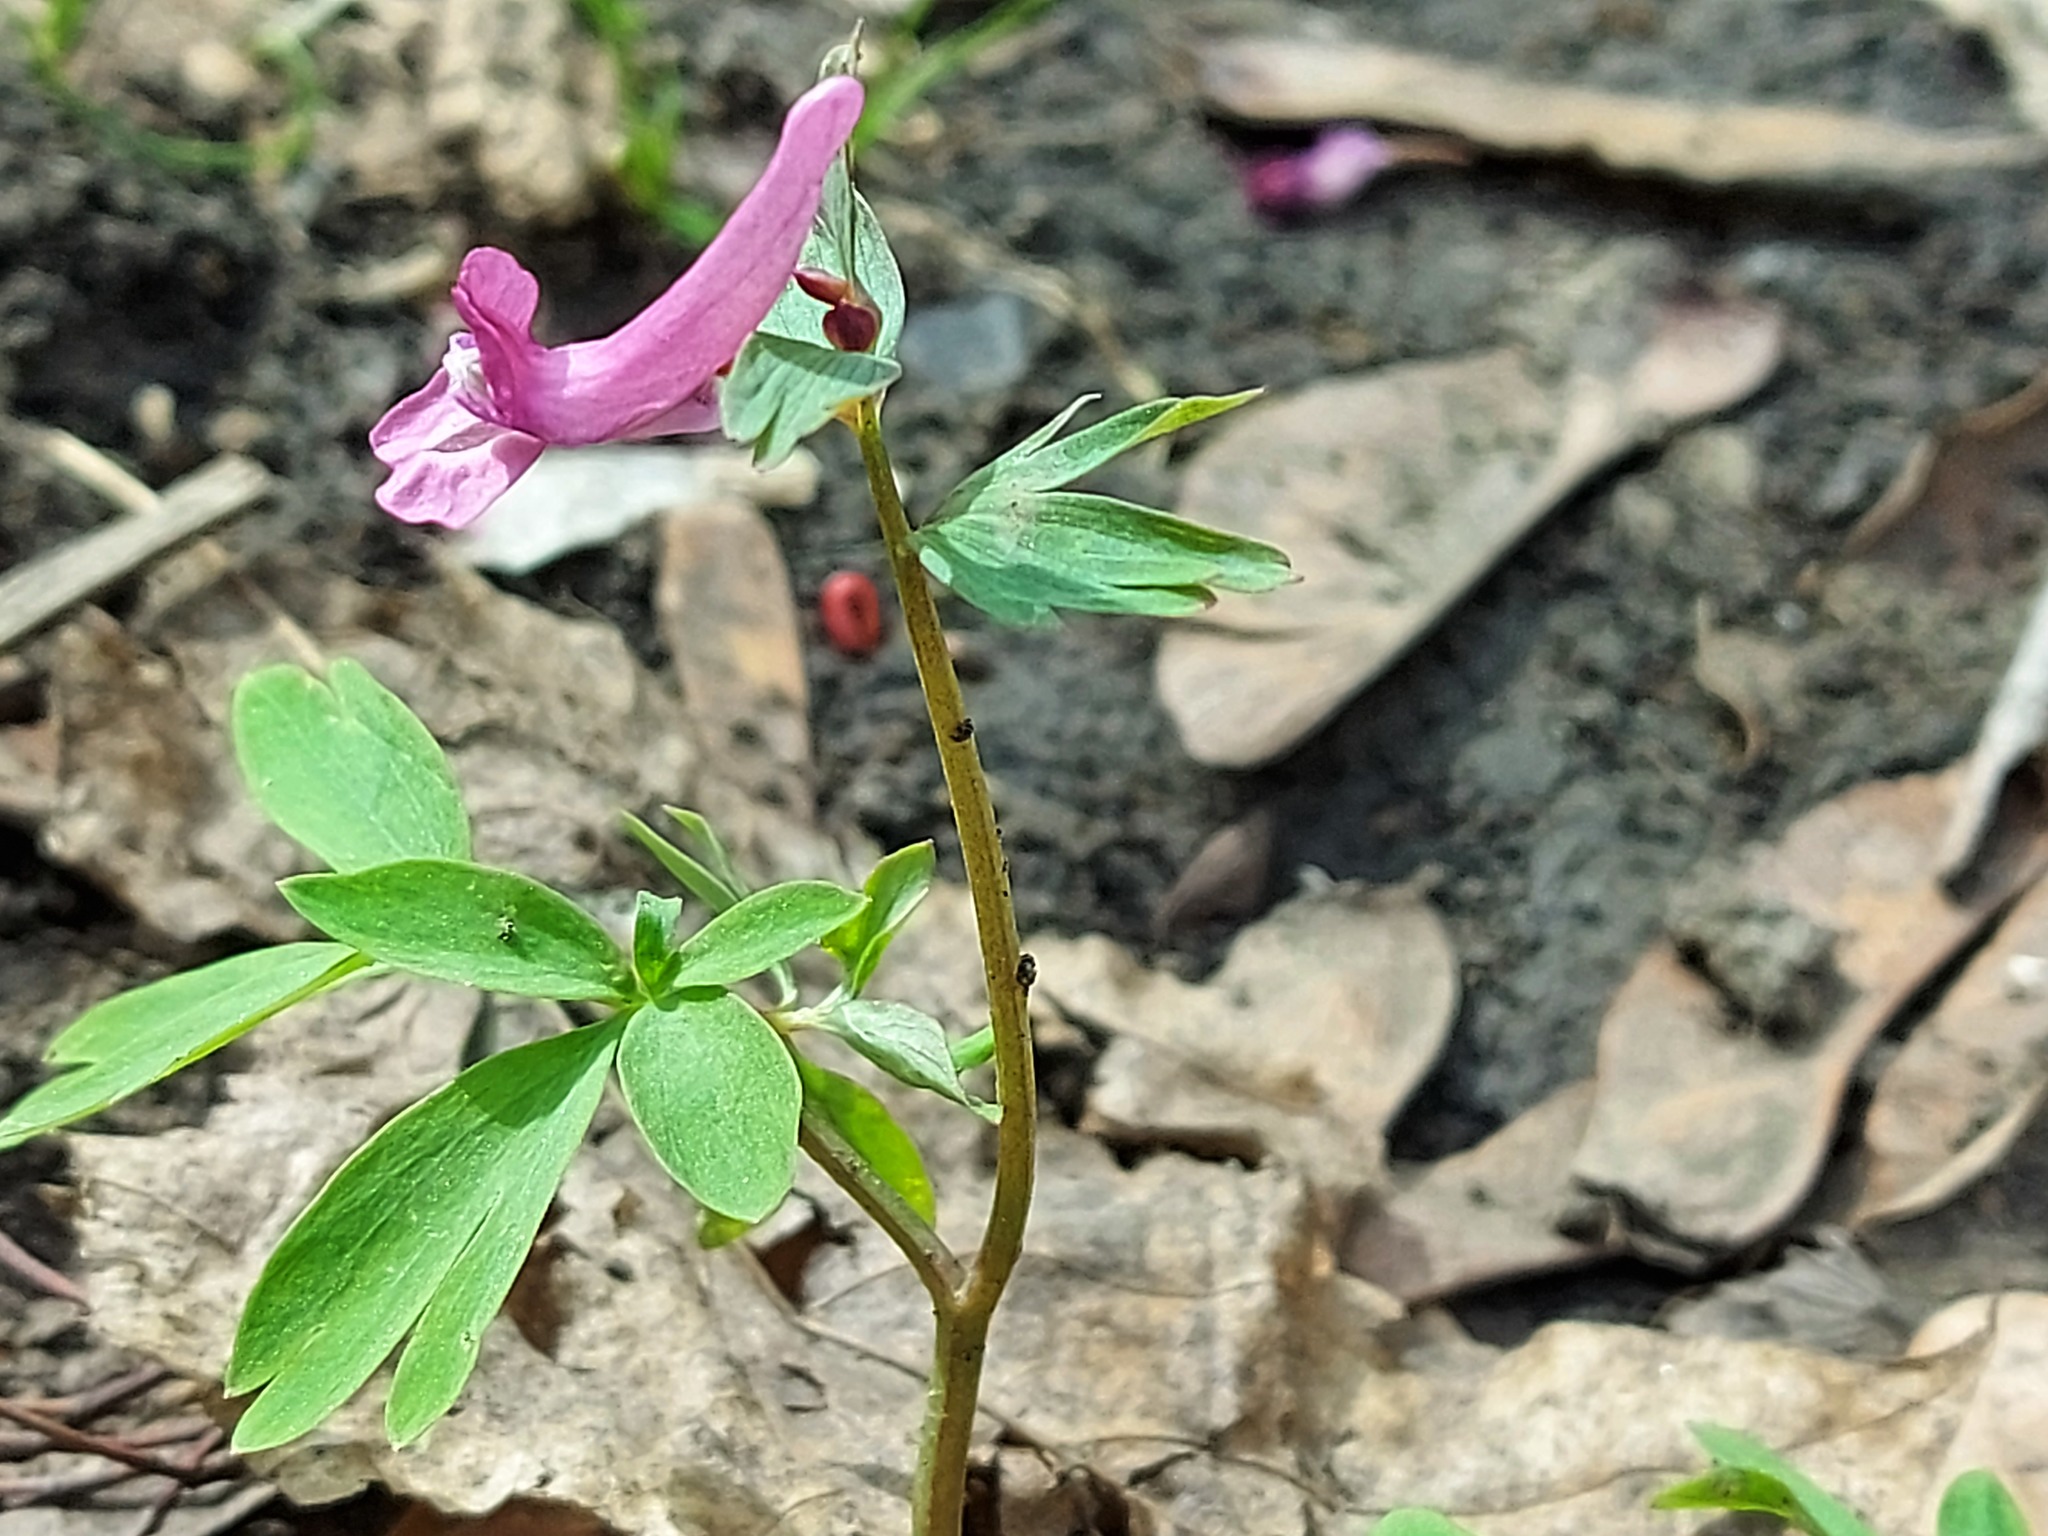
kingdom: Plantae
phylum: Tracheophyta
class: Magnoliopsida
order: Ranunculales
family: Papaveraceae
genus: Corydalis
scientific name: Corydalis solida
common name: Bird-in-a-bush
